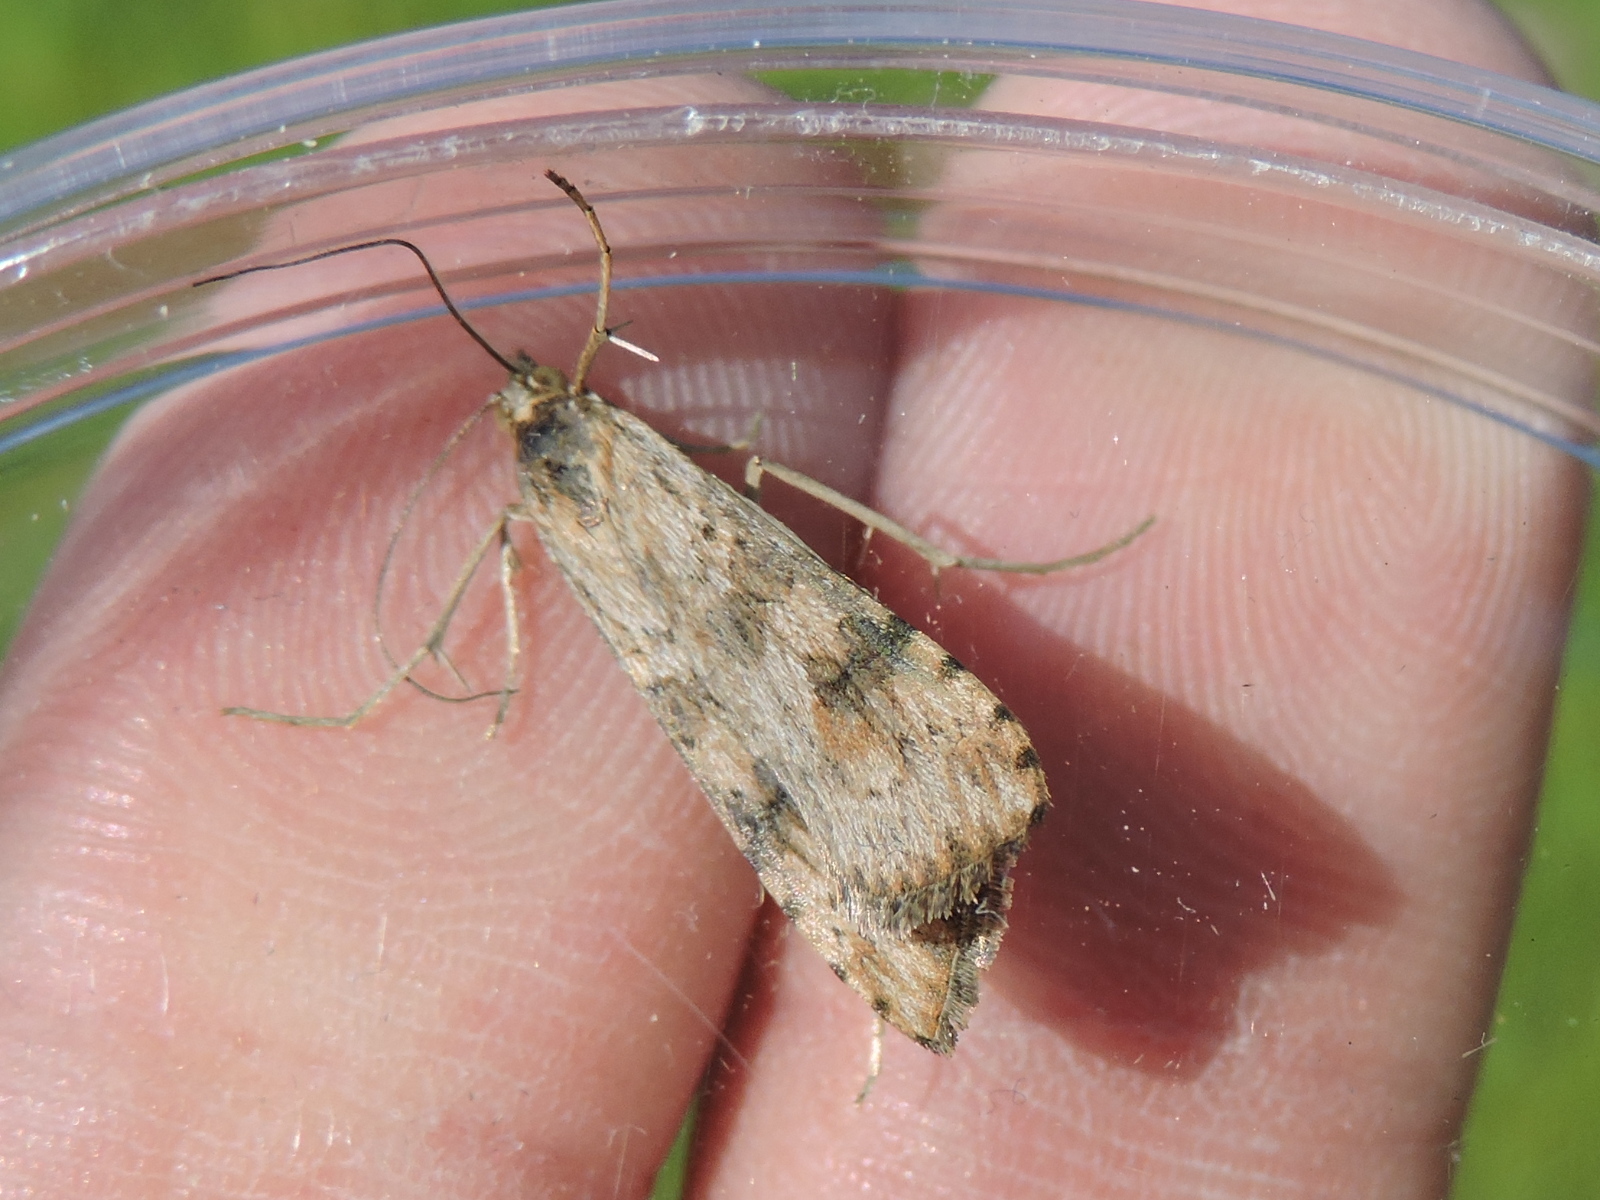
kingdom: Animalia
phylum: Arthropoda
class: Insecta
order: Lepidoptera
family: Crambidae
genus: Nomophila
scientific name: Nomophila nearctica
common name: American rush veneer
